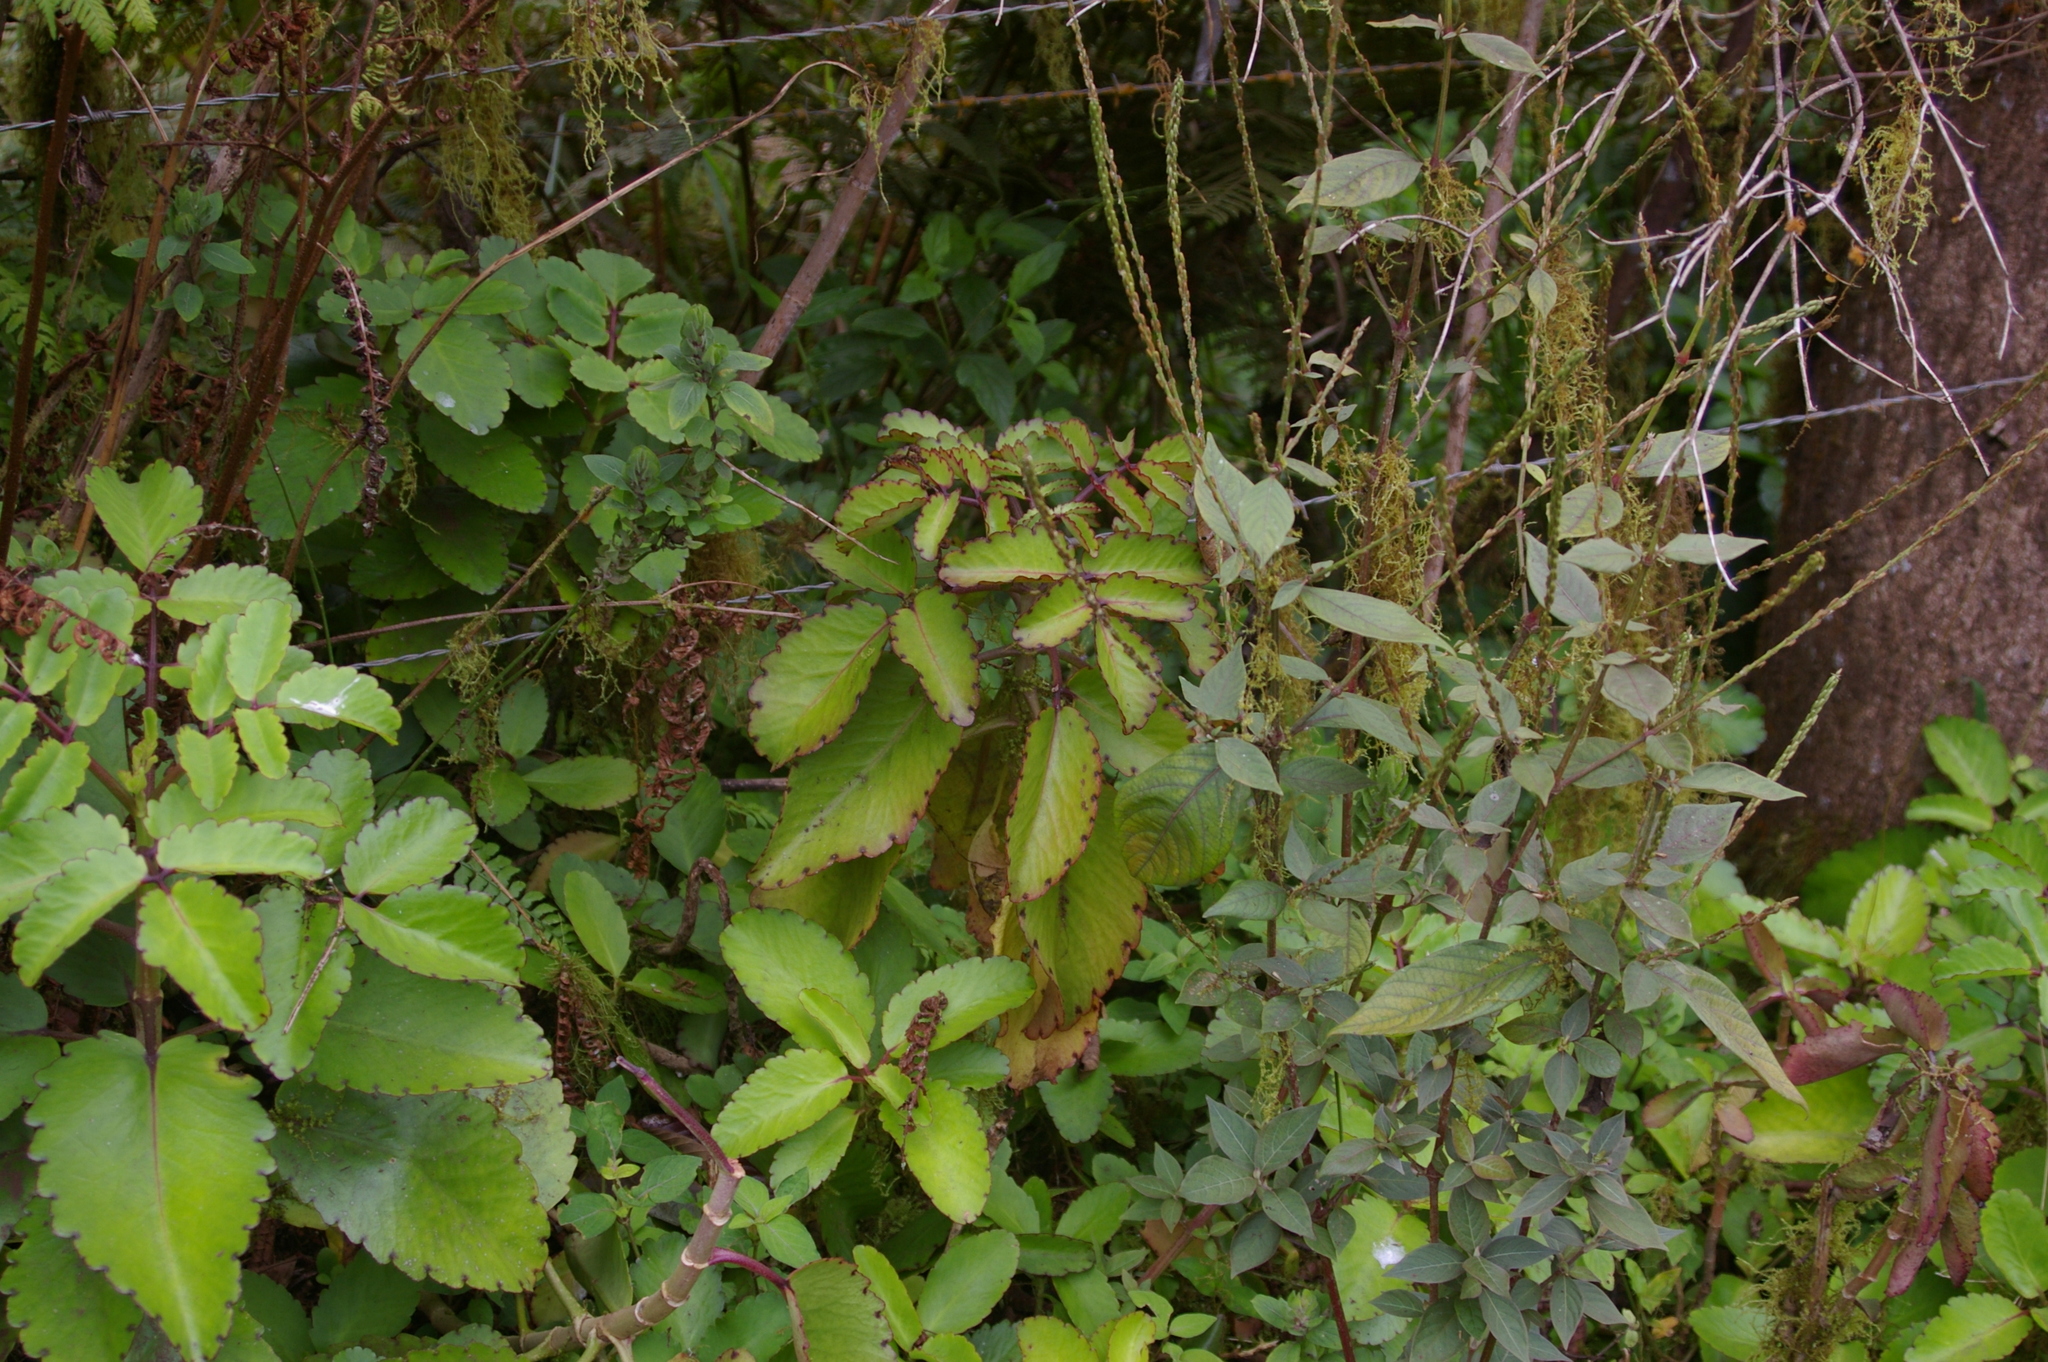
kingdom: Plantae
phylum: Tracheophyta
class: Magnoliopsida
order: Saxifragales
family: Crassulaceae
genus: Kalanchoe
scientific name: Kalanchoe pinnata
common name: Cathedral bells
